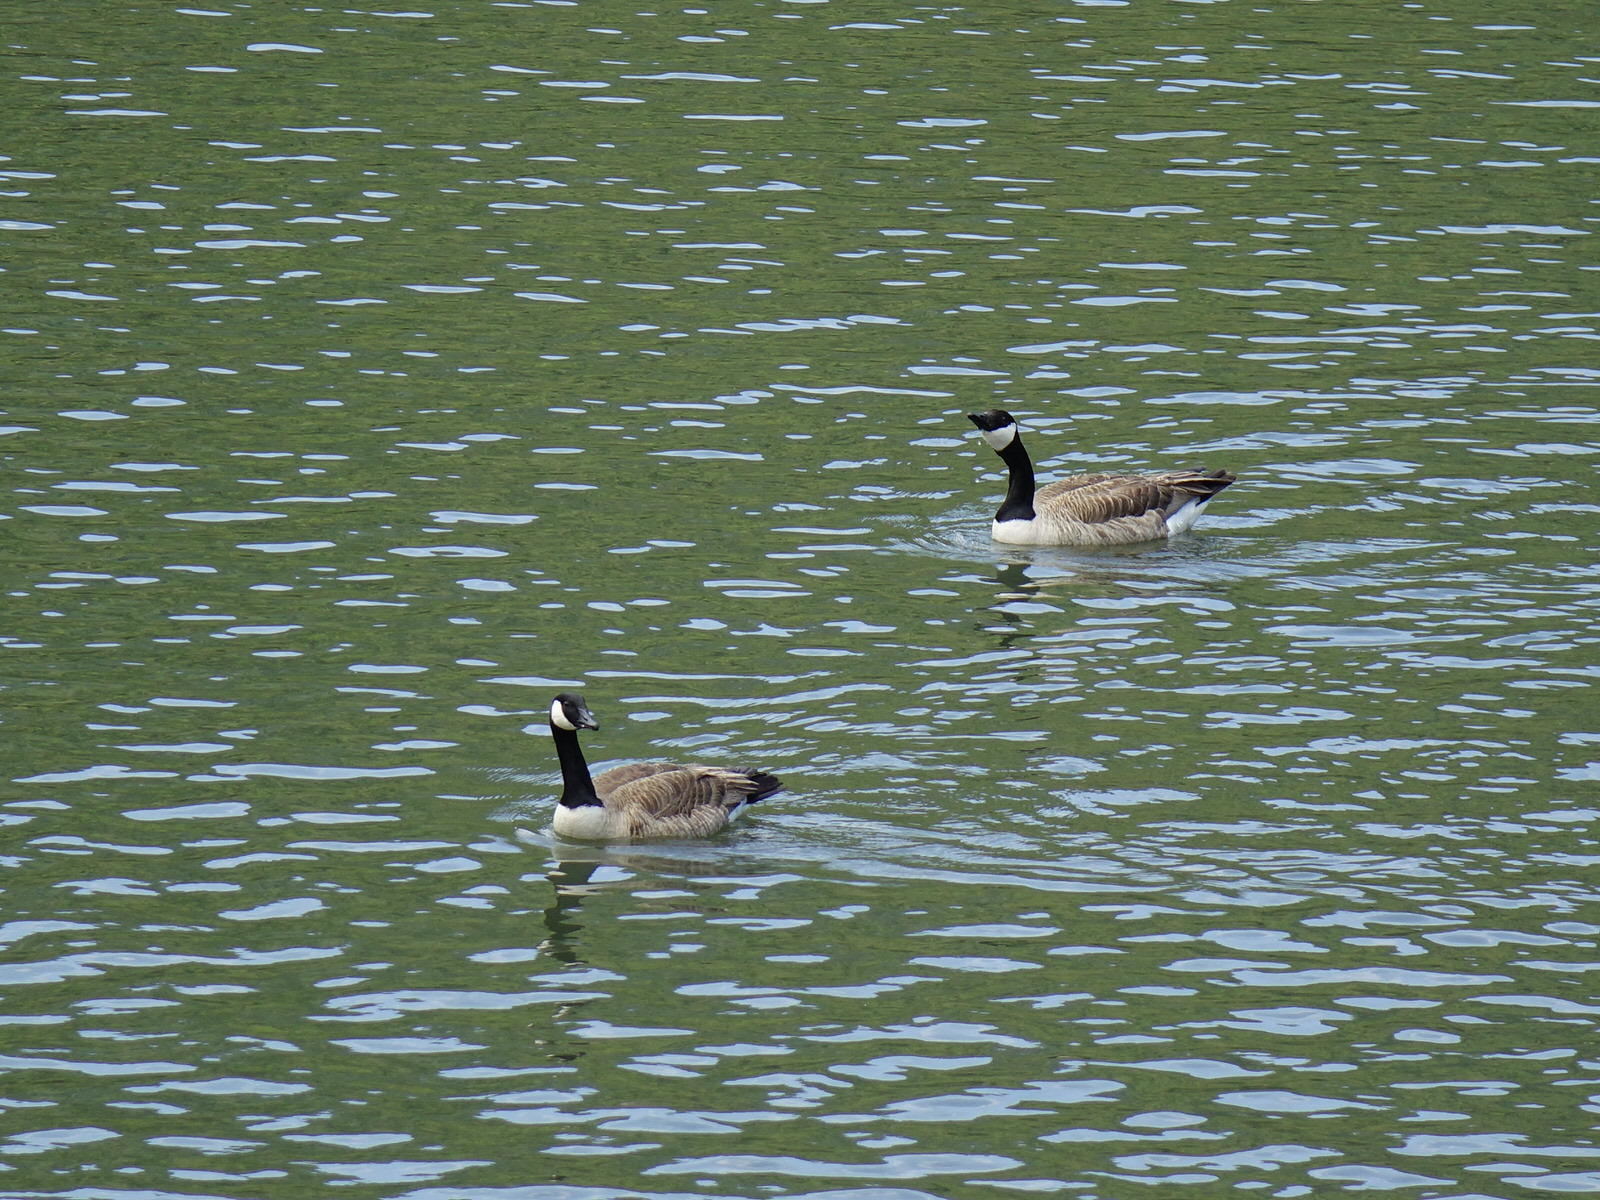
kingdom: Animalia
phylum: Chordata
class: Aves
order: Anseriformes
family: Anatidae
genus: Branta
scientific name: Branta canadensis
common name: Canada goose
